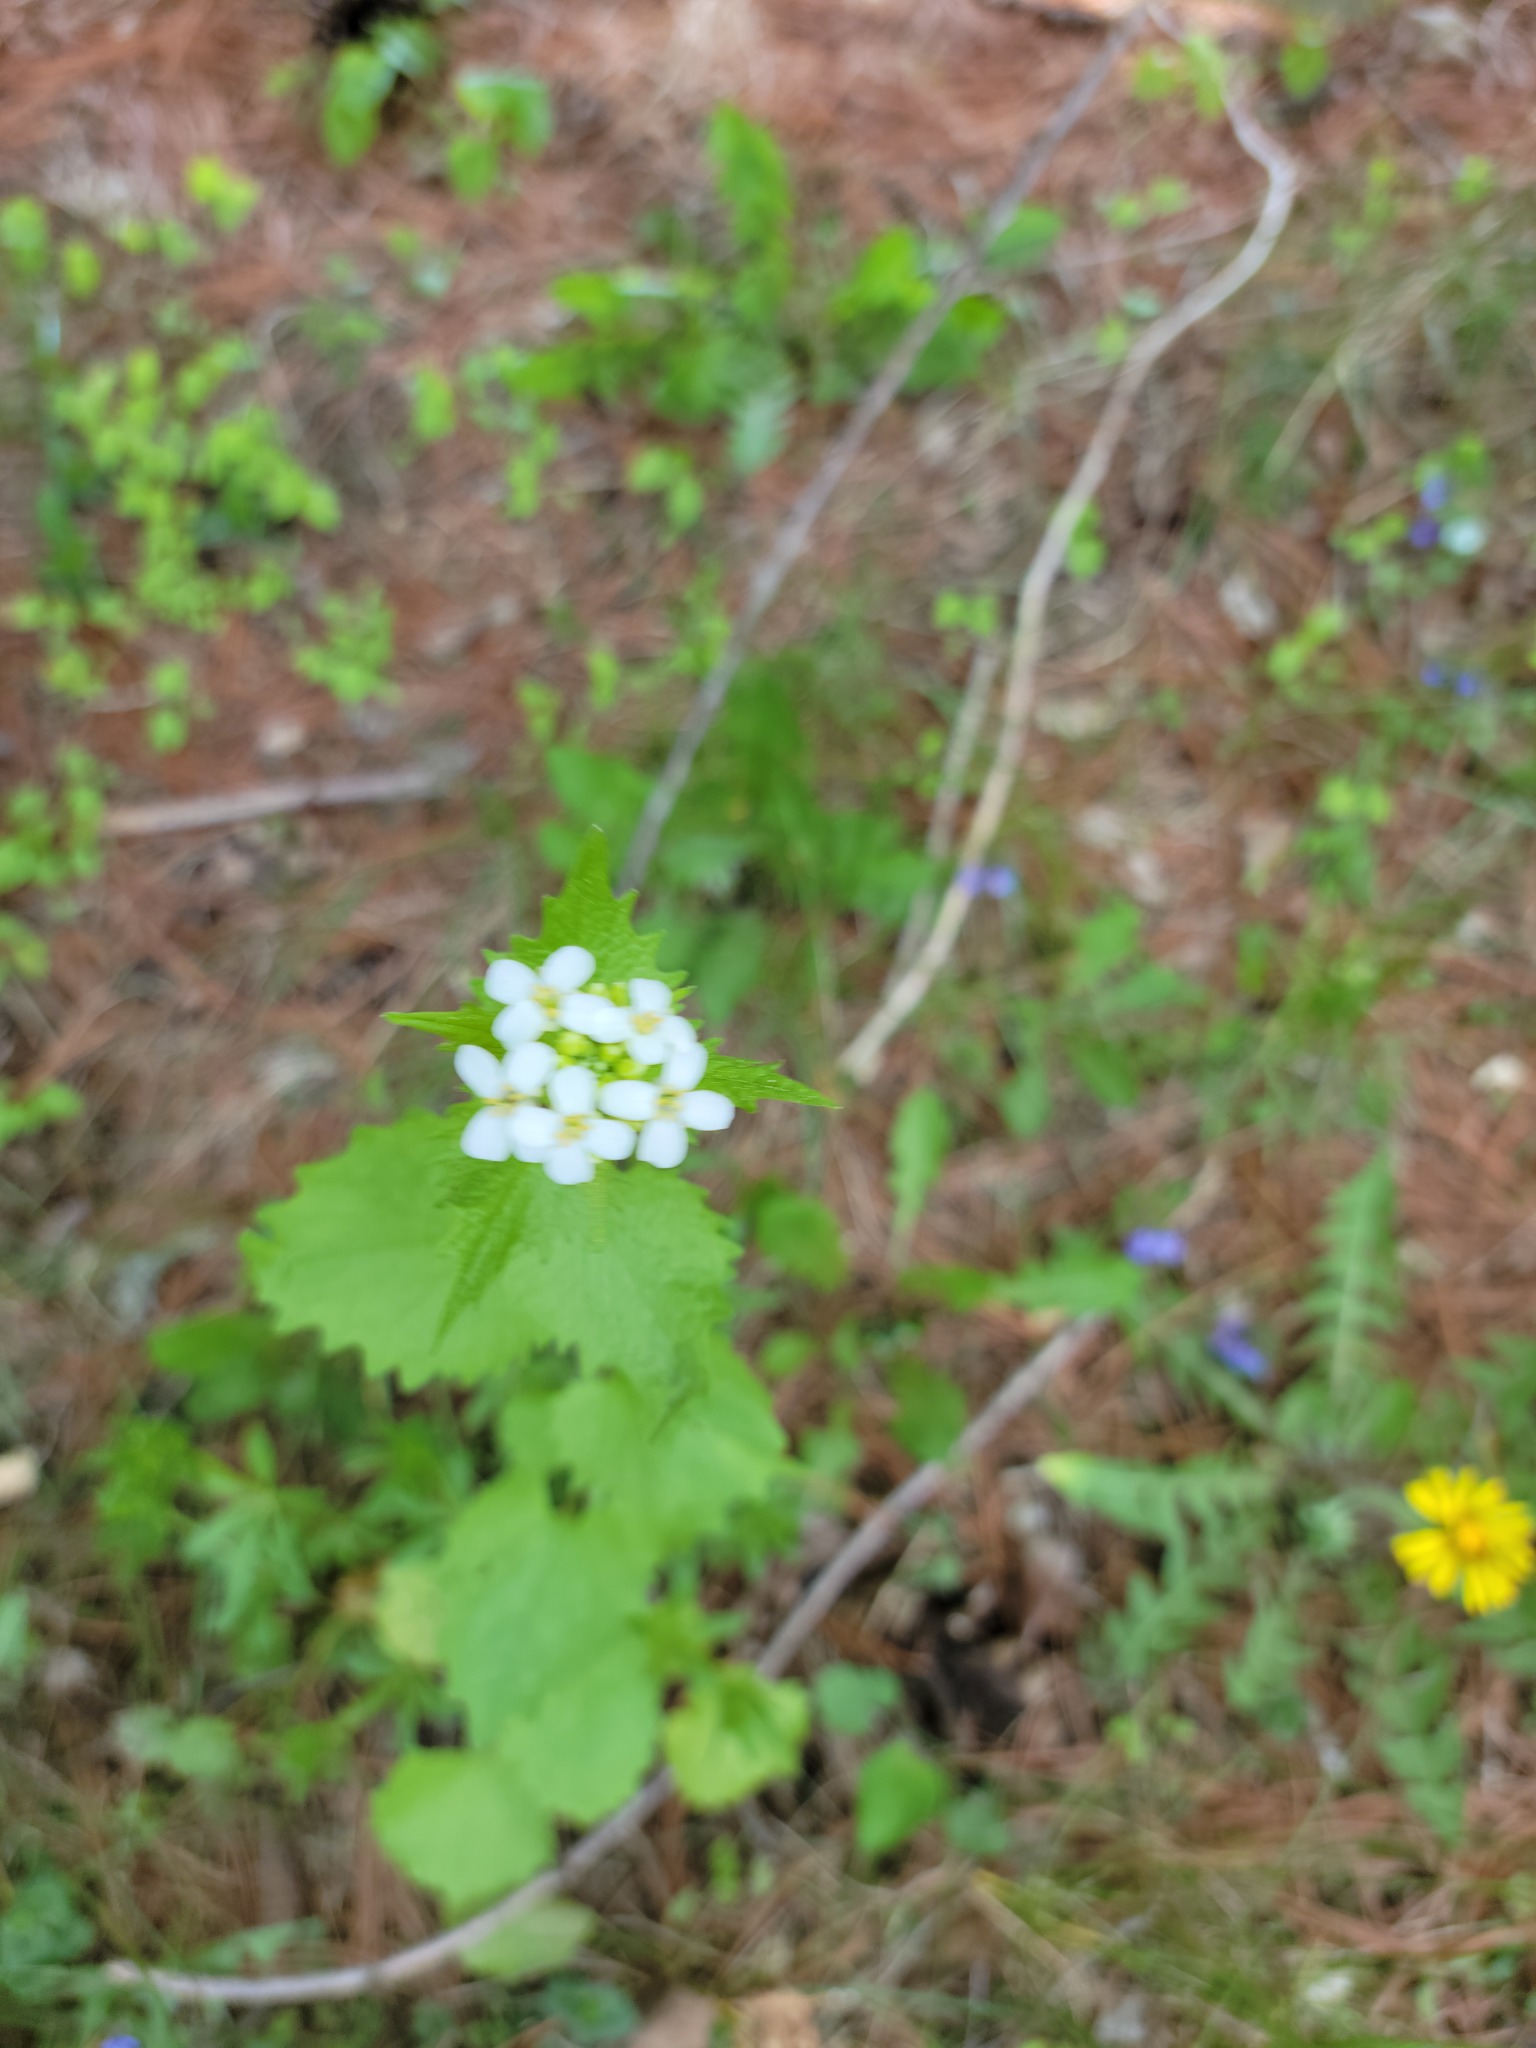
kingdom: Plantae
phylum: Tracheophyta
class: Magnoliopsida
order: Brassicales
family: Brassicaceae
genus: Alliaria
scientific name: Alliaria petiolata
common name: Garlic mustard
